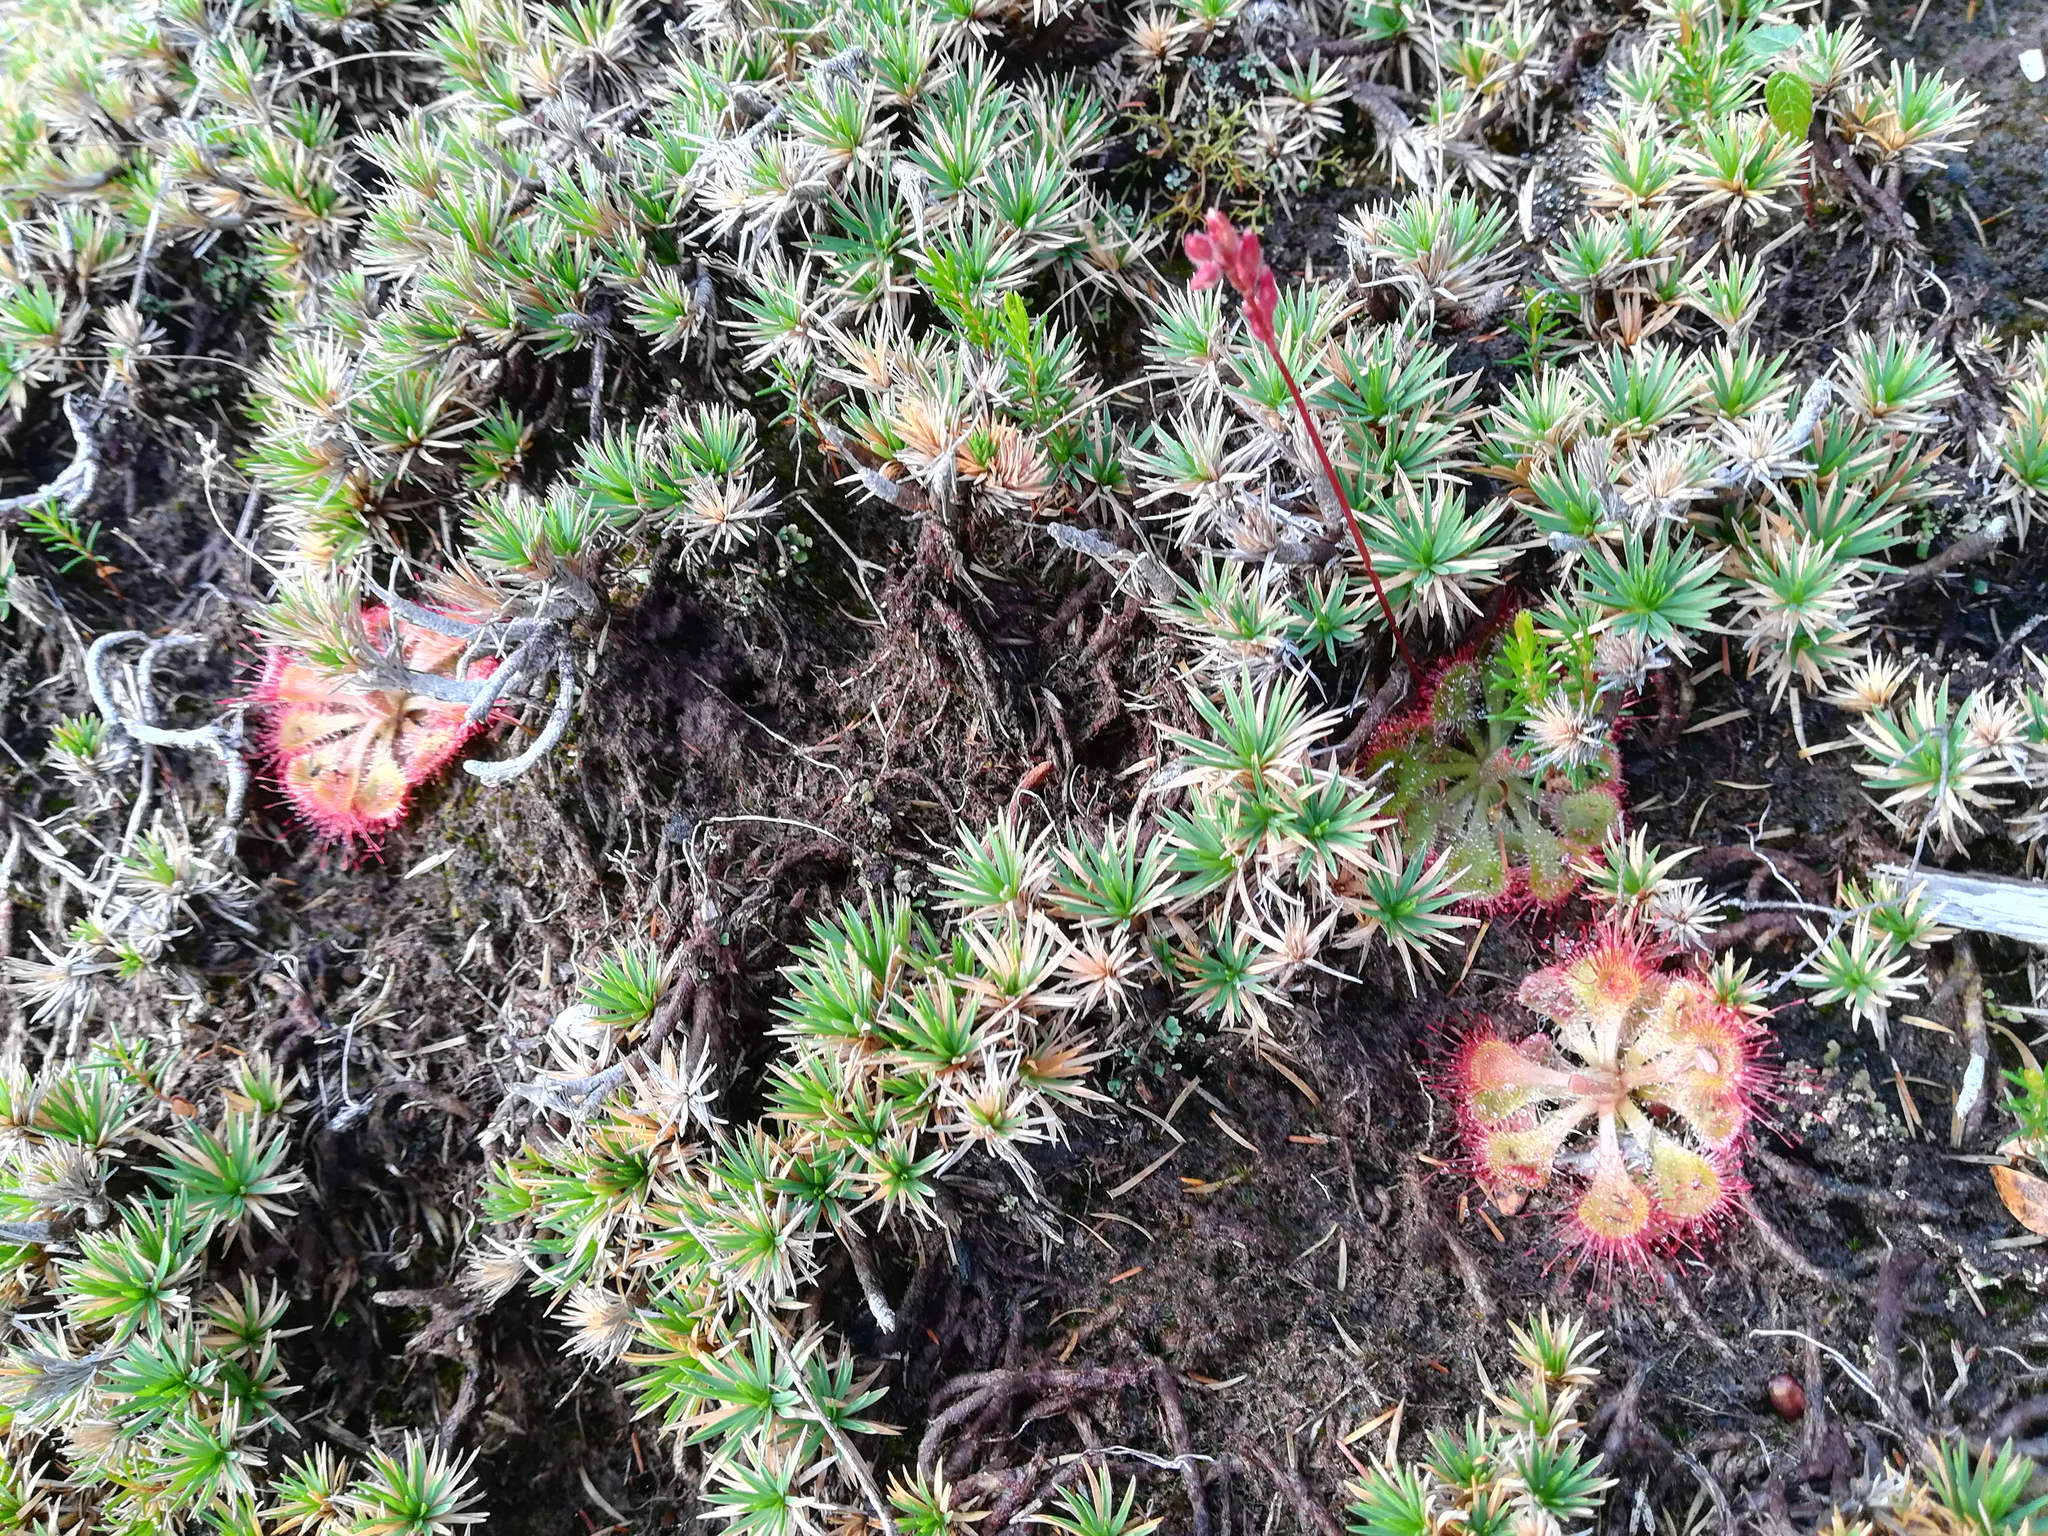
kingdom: Plantae
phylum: Tracheophyta
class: Magnoliopsida
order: Caryophyllales
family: Droseraceae
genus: Drosera
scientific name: Drosera spatulata
